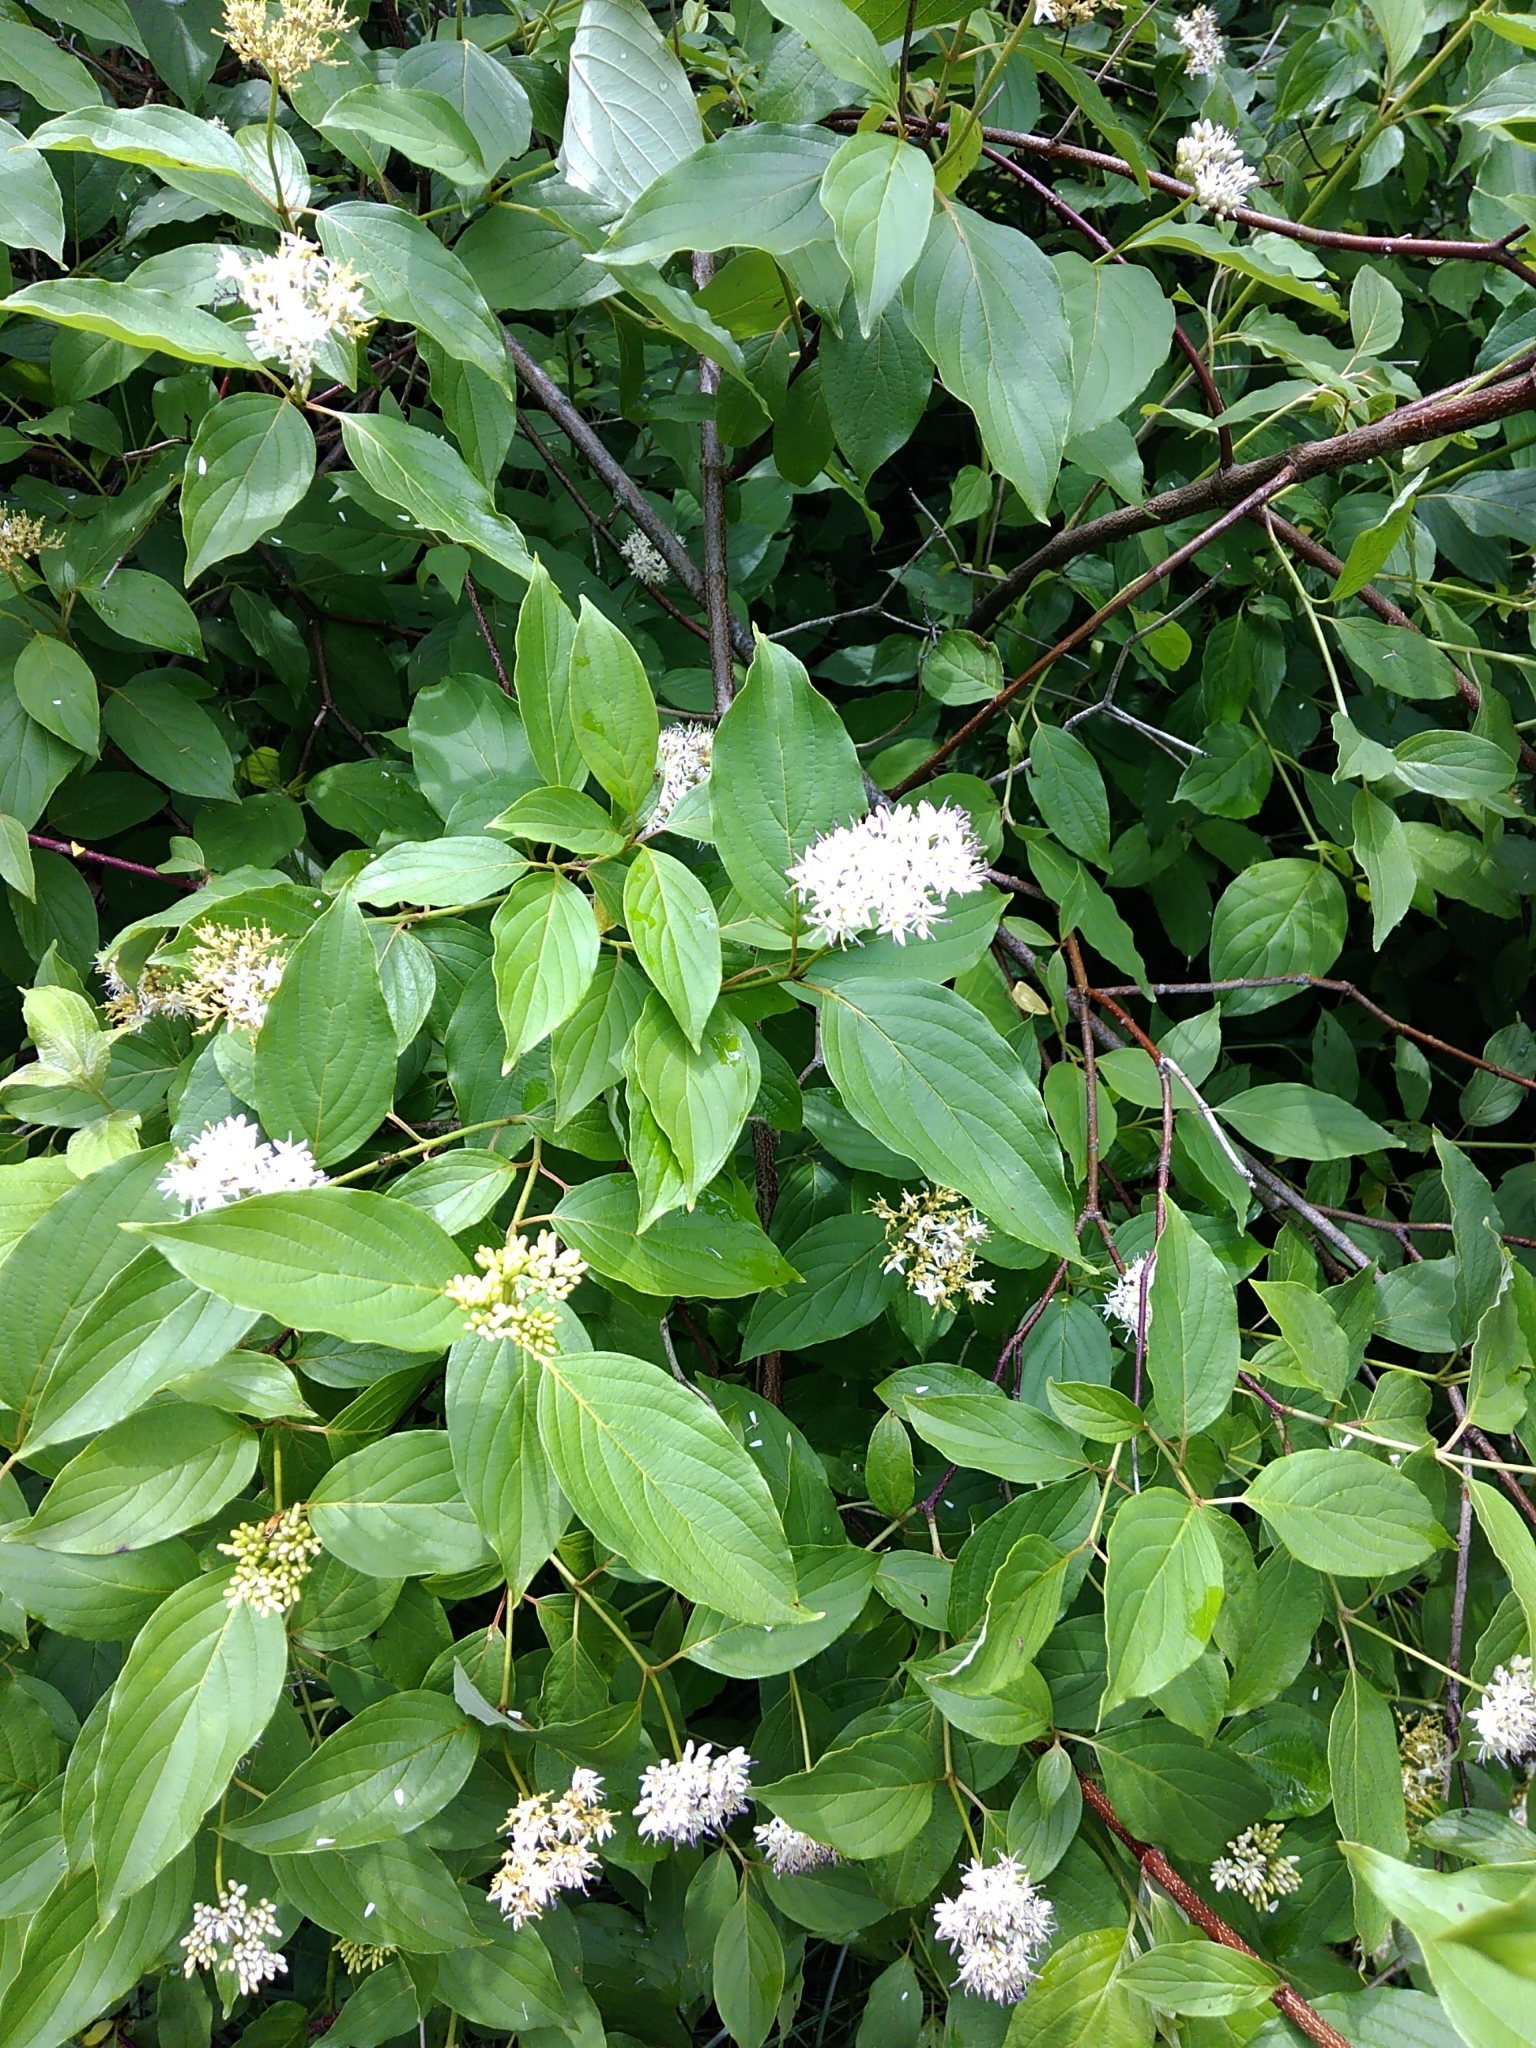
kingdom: Plantae
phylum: Tracheophyta
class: Magnoliopsida
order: Cornales
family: Cornaceae
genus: Cornus
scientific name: Cornus sericea
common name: Red-osier dogwood
